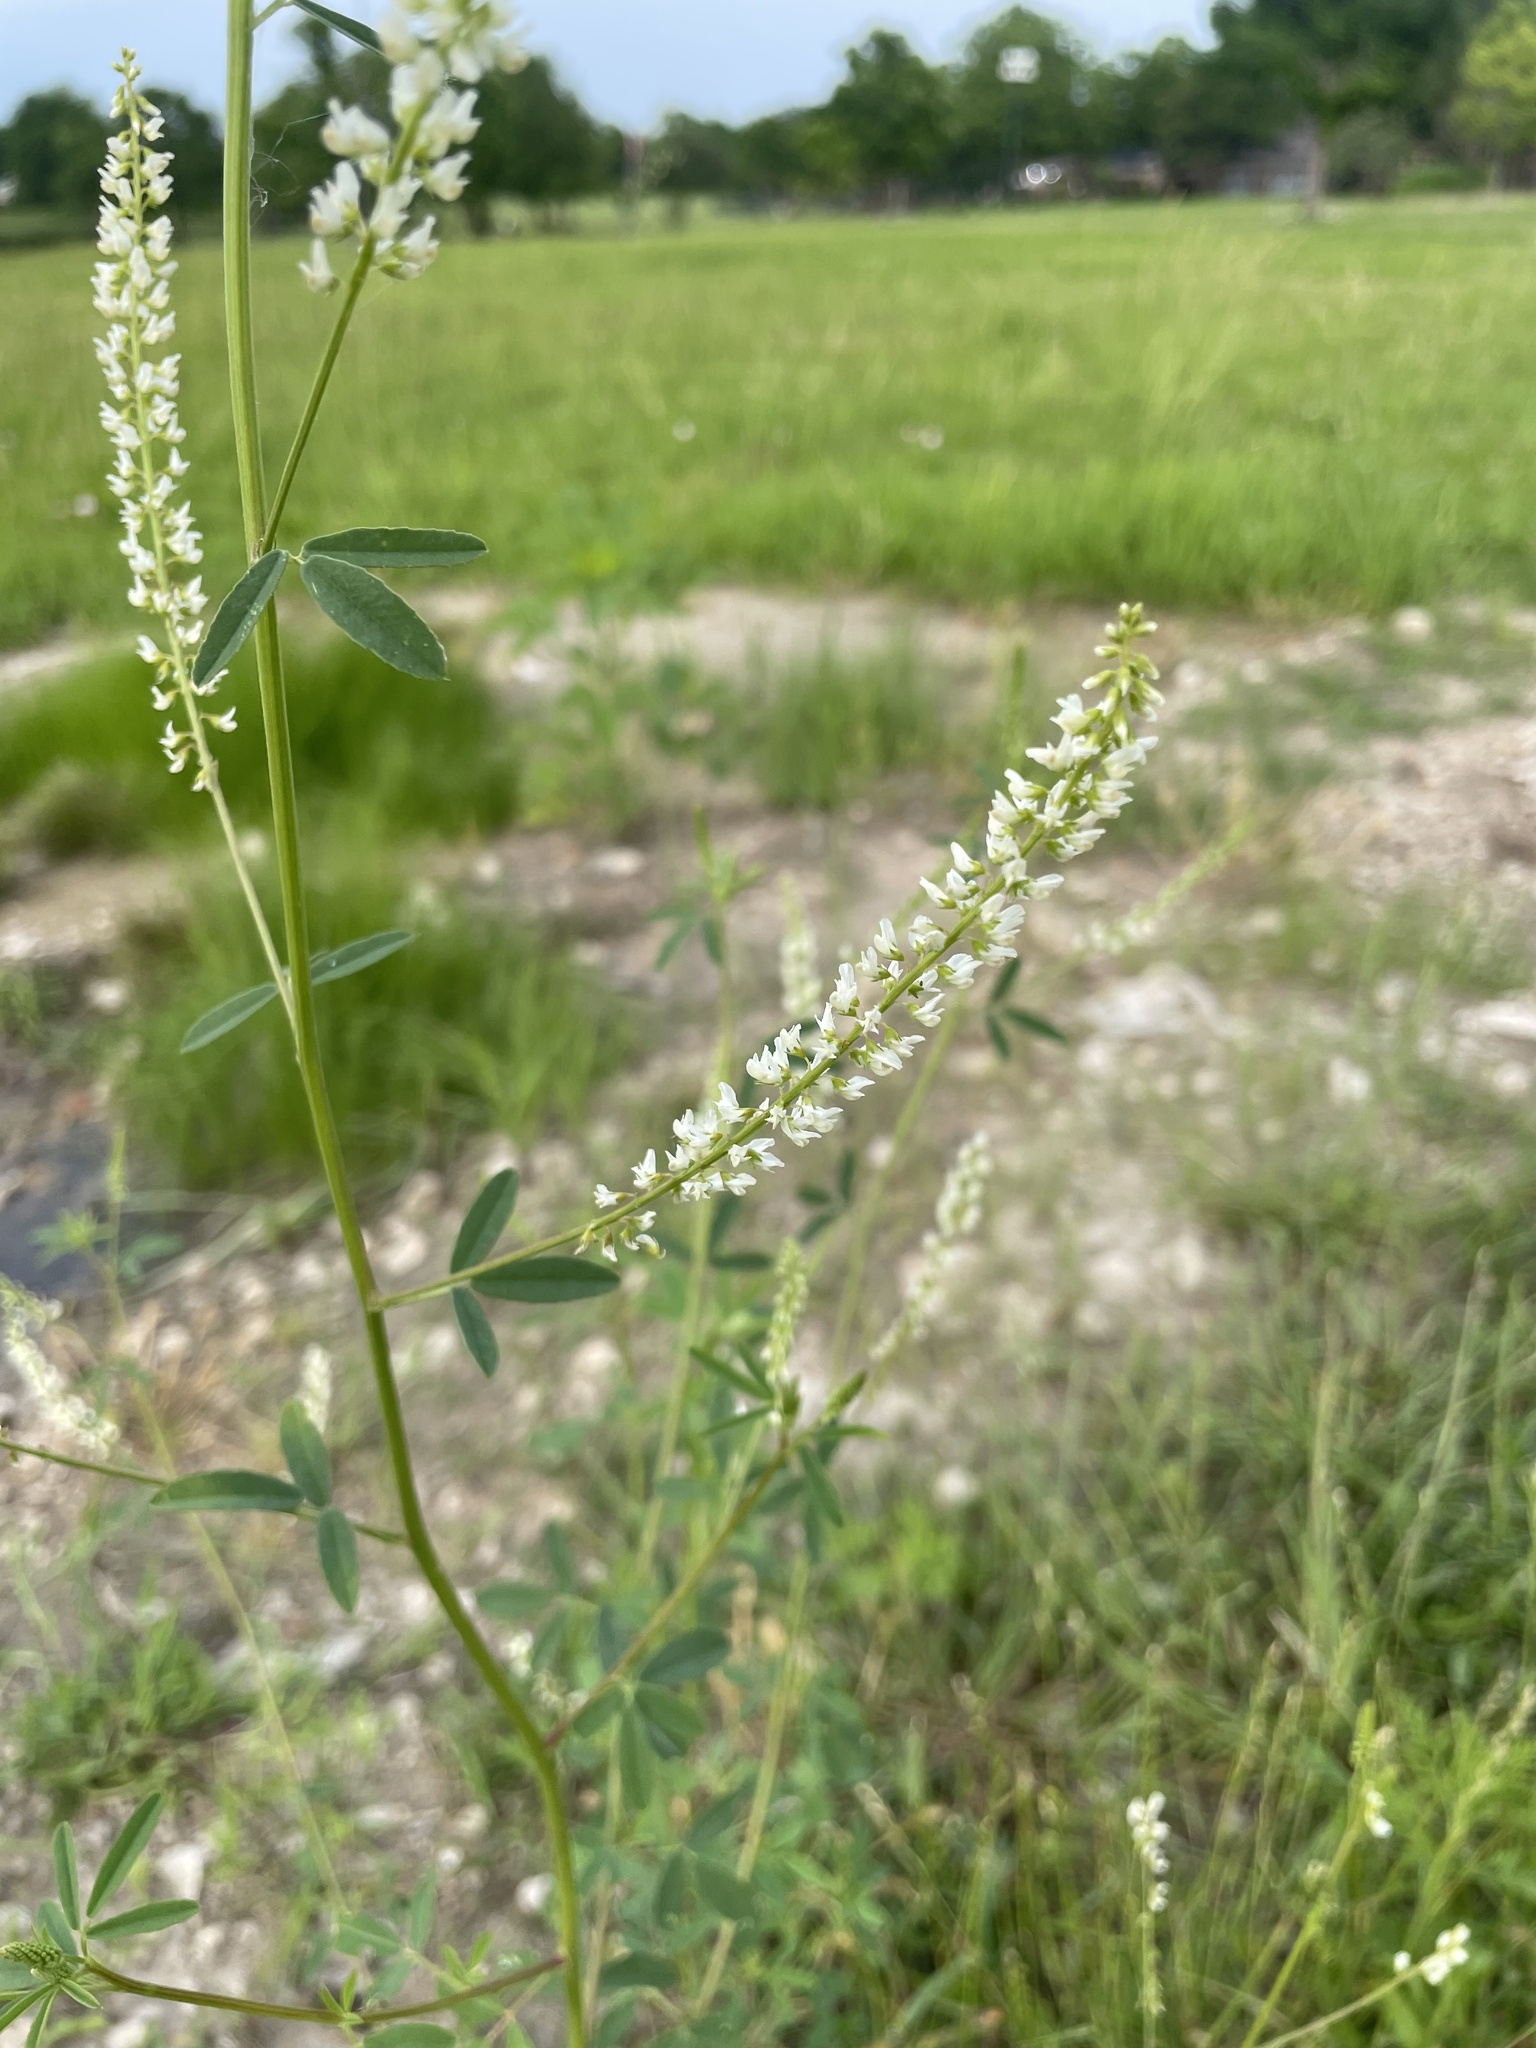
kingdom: Plantae
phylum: Tracheophyta
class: Magnoliopsida
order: Fabales
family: Fabaceae
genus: Melilotus
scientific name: Melilotus albus
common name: White melilot
